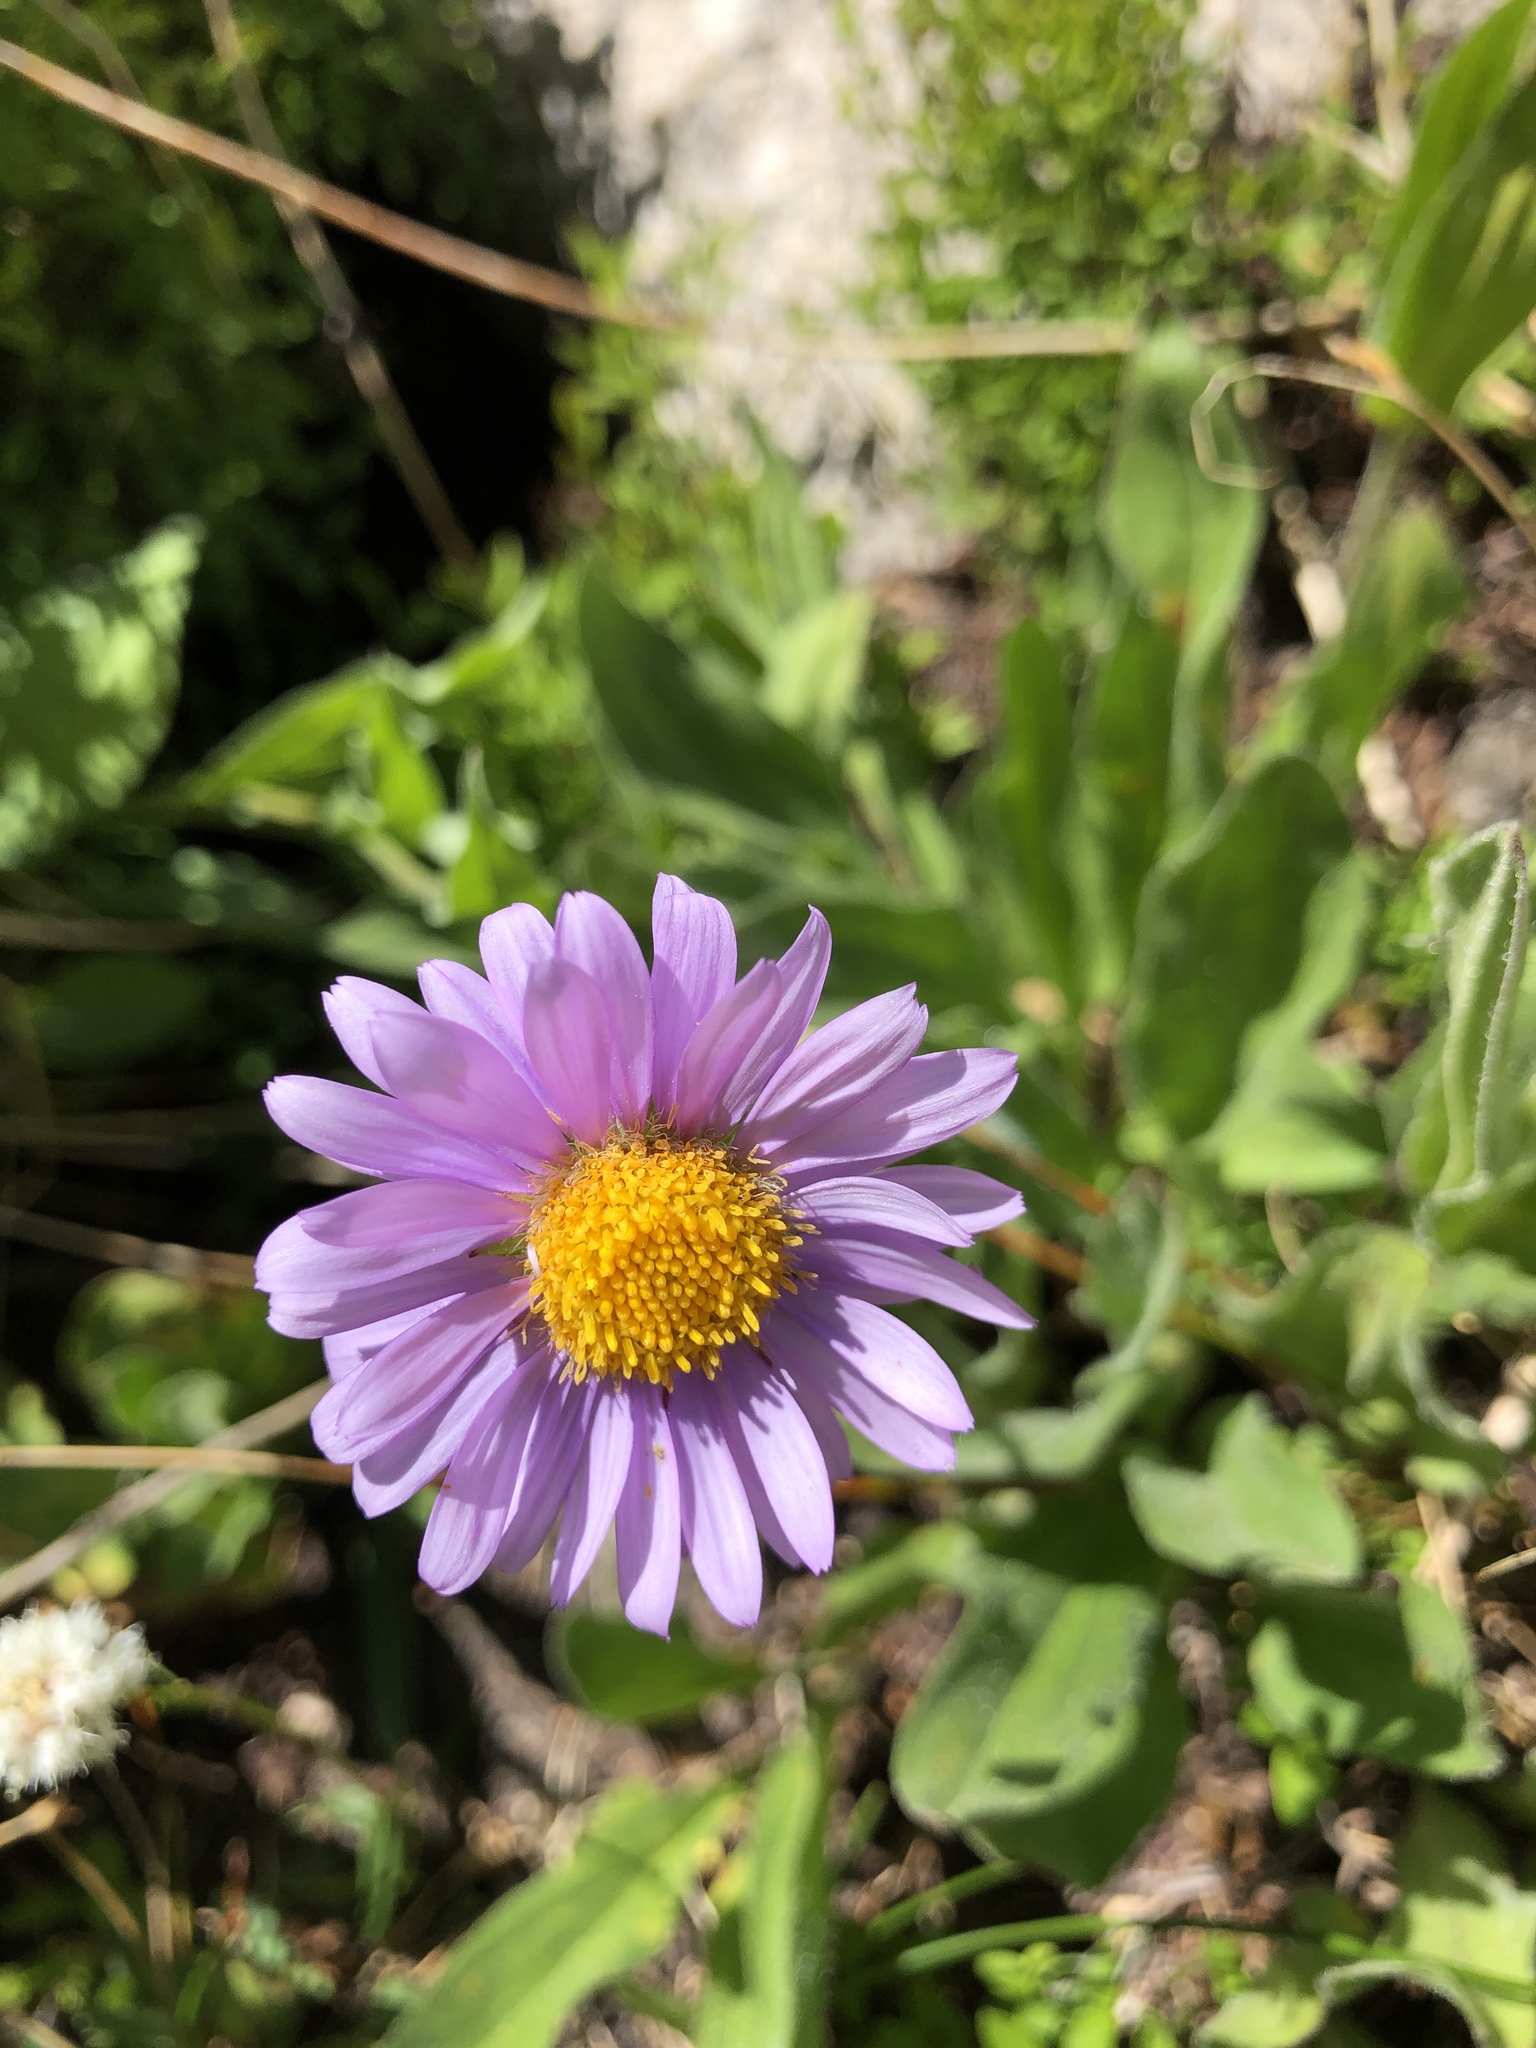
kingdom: Plantae
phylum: Tracheophyta
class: Magnoliopsida
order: Asterales
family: Asteraceae
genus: Erigeron
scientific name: Erigeron glacialis
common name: Subalpine fleabane
